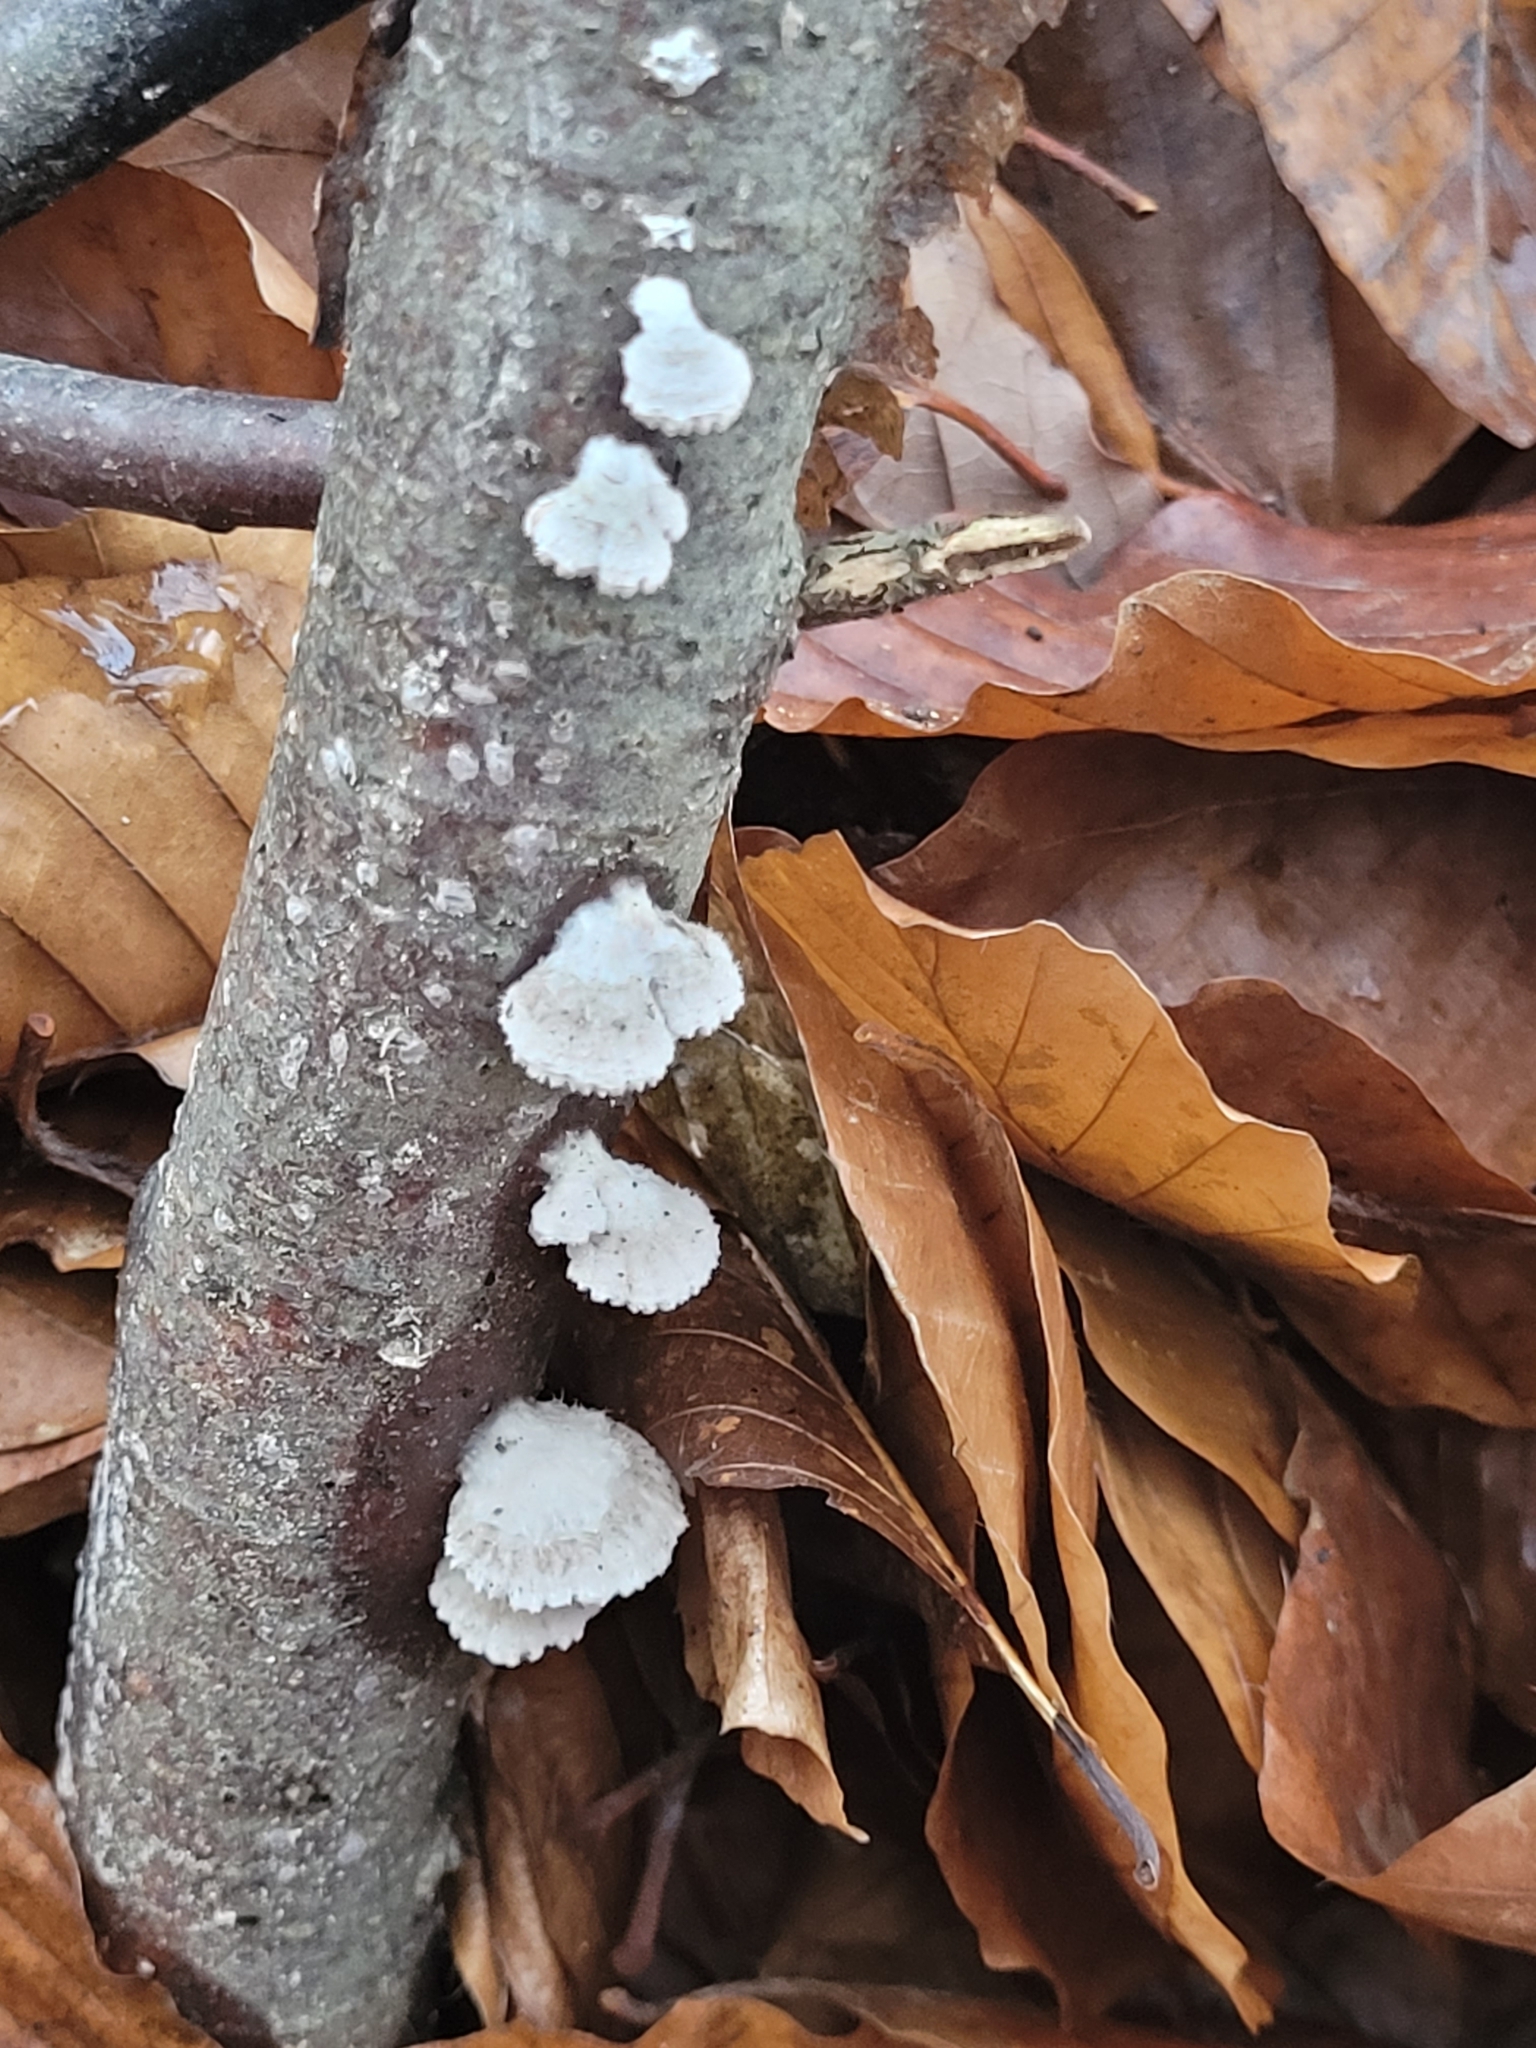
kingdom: Fungi
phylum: Basidiomycota
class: Agaricomycetes
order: Agaricales
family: Schizophyllaceae
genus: Schizophyllum
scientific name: Schizophyllum commune
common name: Common porecrust
